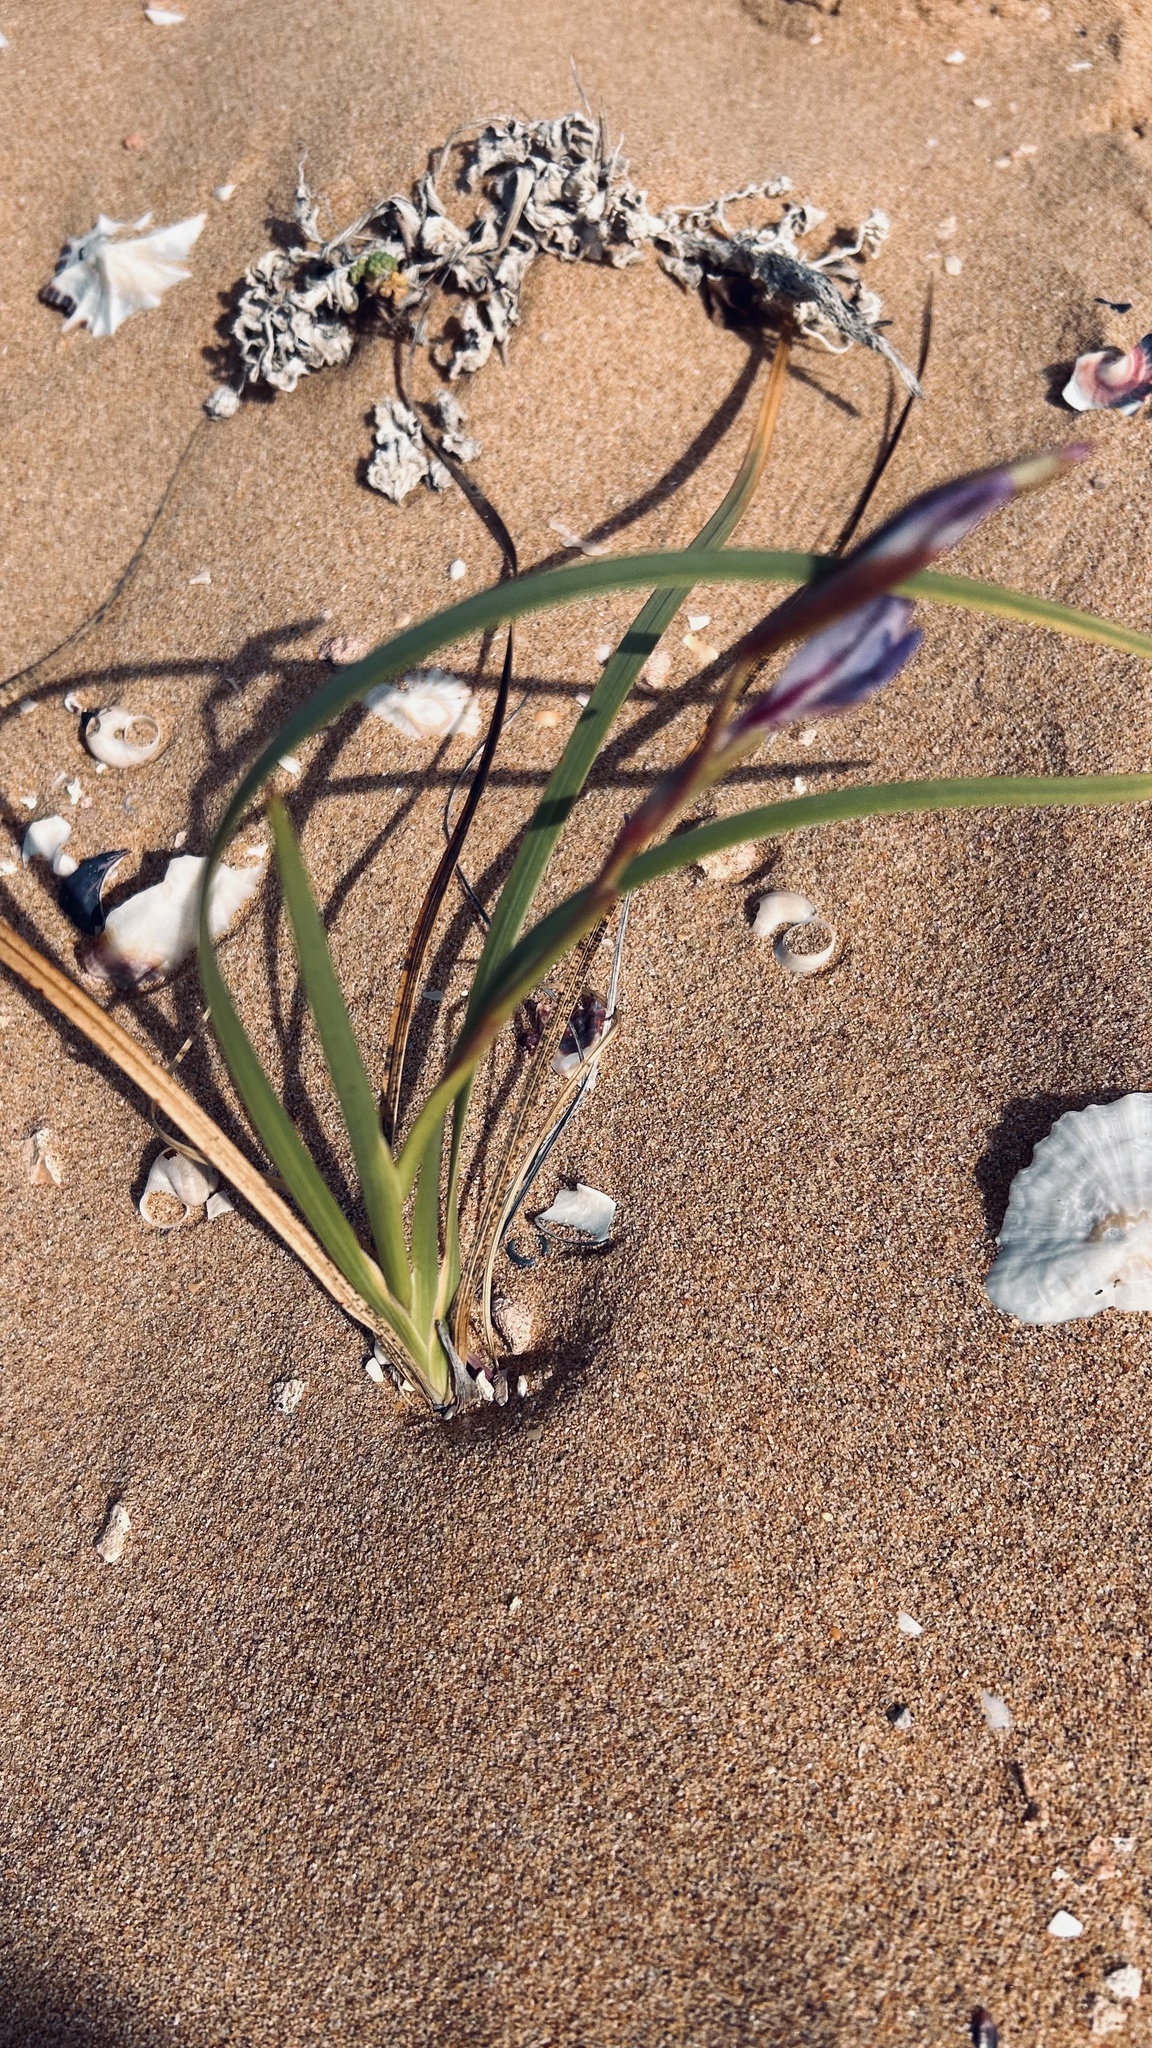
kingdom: Plantae
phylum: Tracheophyta
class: Liliopsida
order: Asparagales
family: Iridaceae
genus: Gladiolus
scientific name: Gladiolus gueinzii
